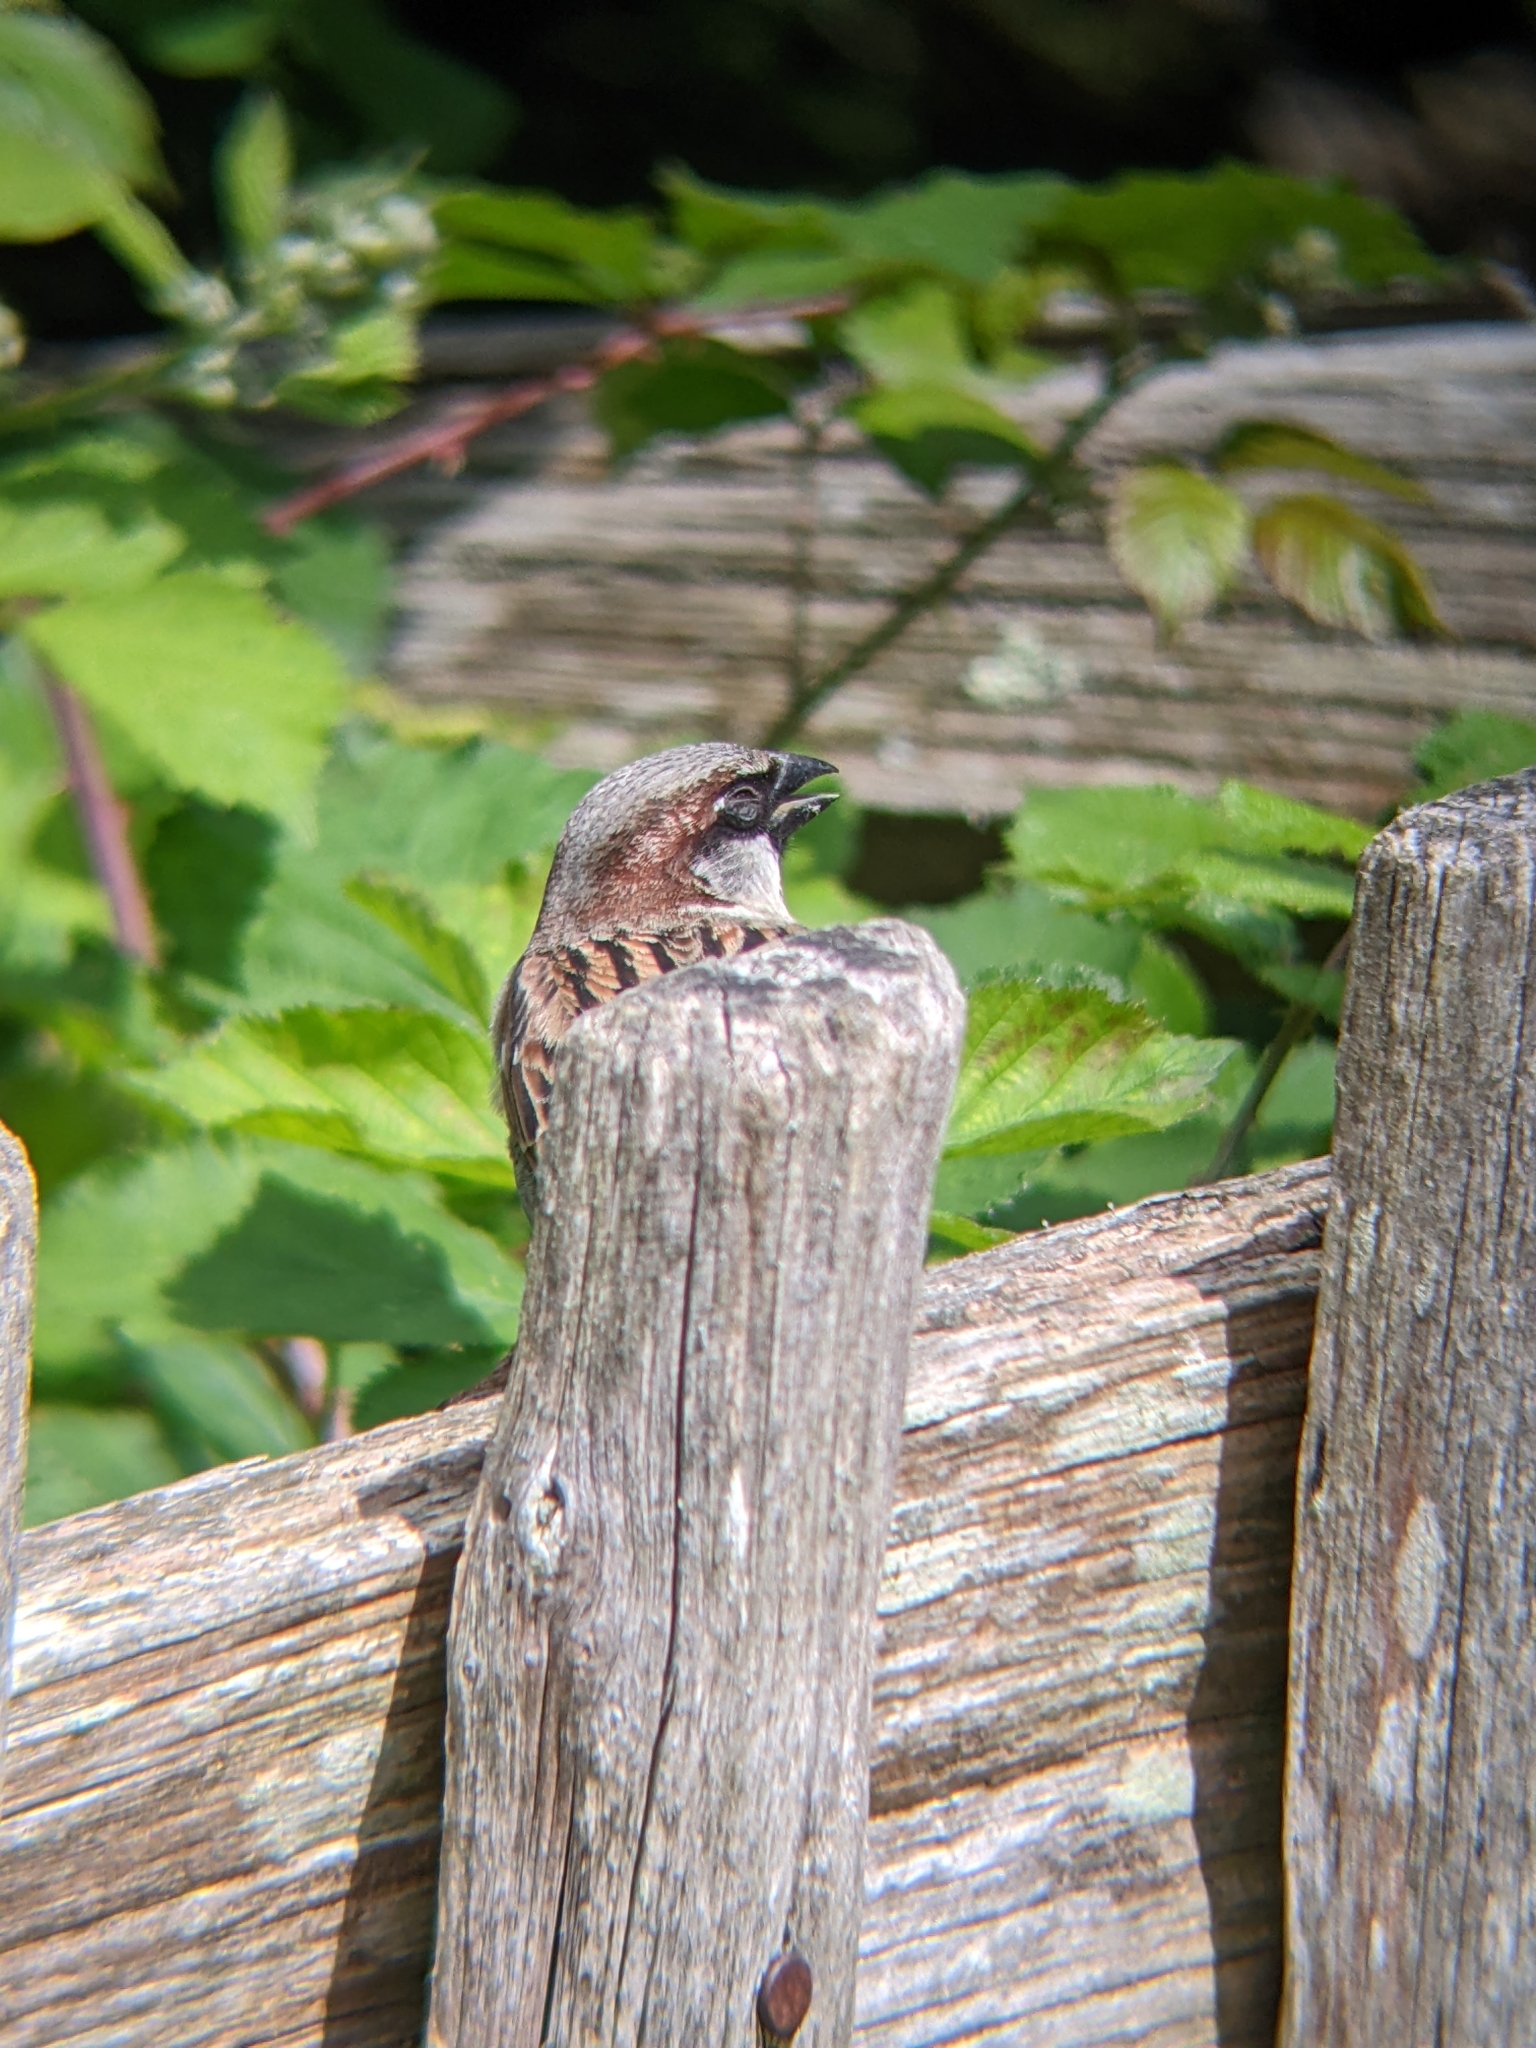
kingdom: Animalia
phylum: Chordata
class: Aves
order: Passeriformes
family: Passeridae
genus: Passer
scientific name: Passer domesticus
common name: House sparrow
